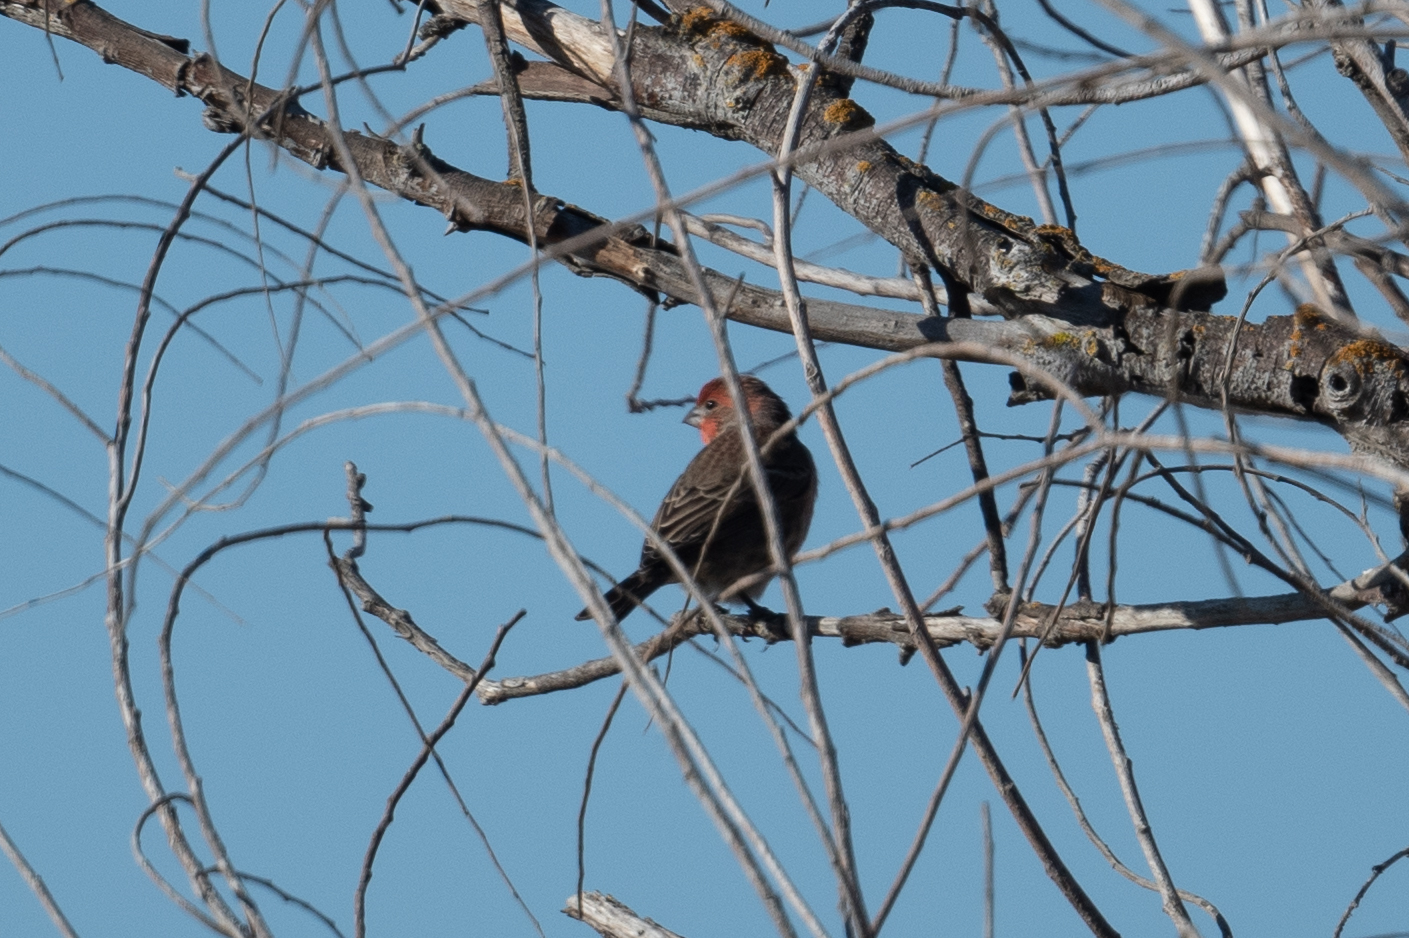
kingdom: Animalia
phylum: Chordata
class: Aves
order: Passeriformes
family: Fringillidae
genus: Haemorhous
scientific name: Haemorhous mexicanus
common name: House finch
